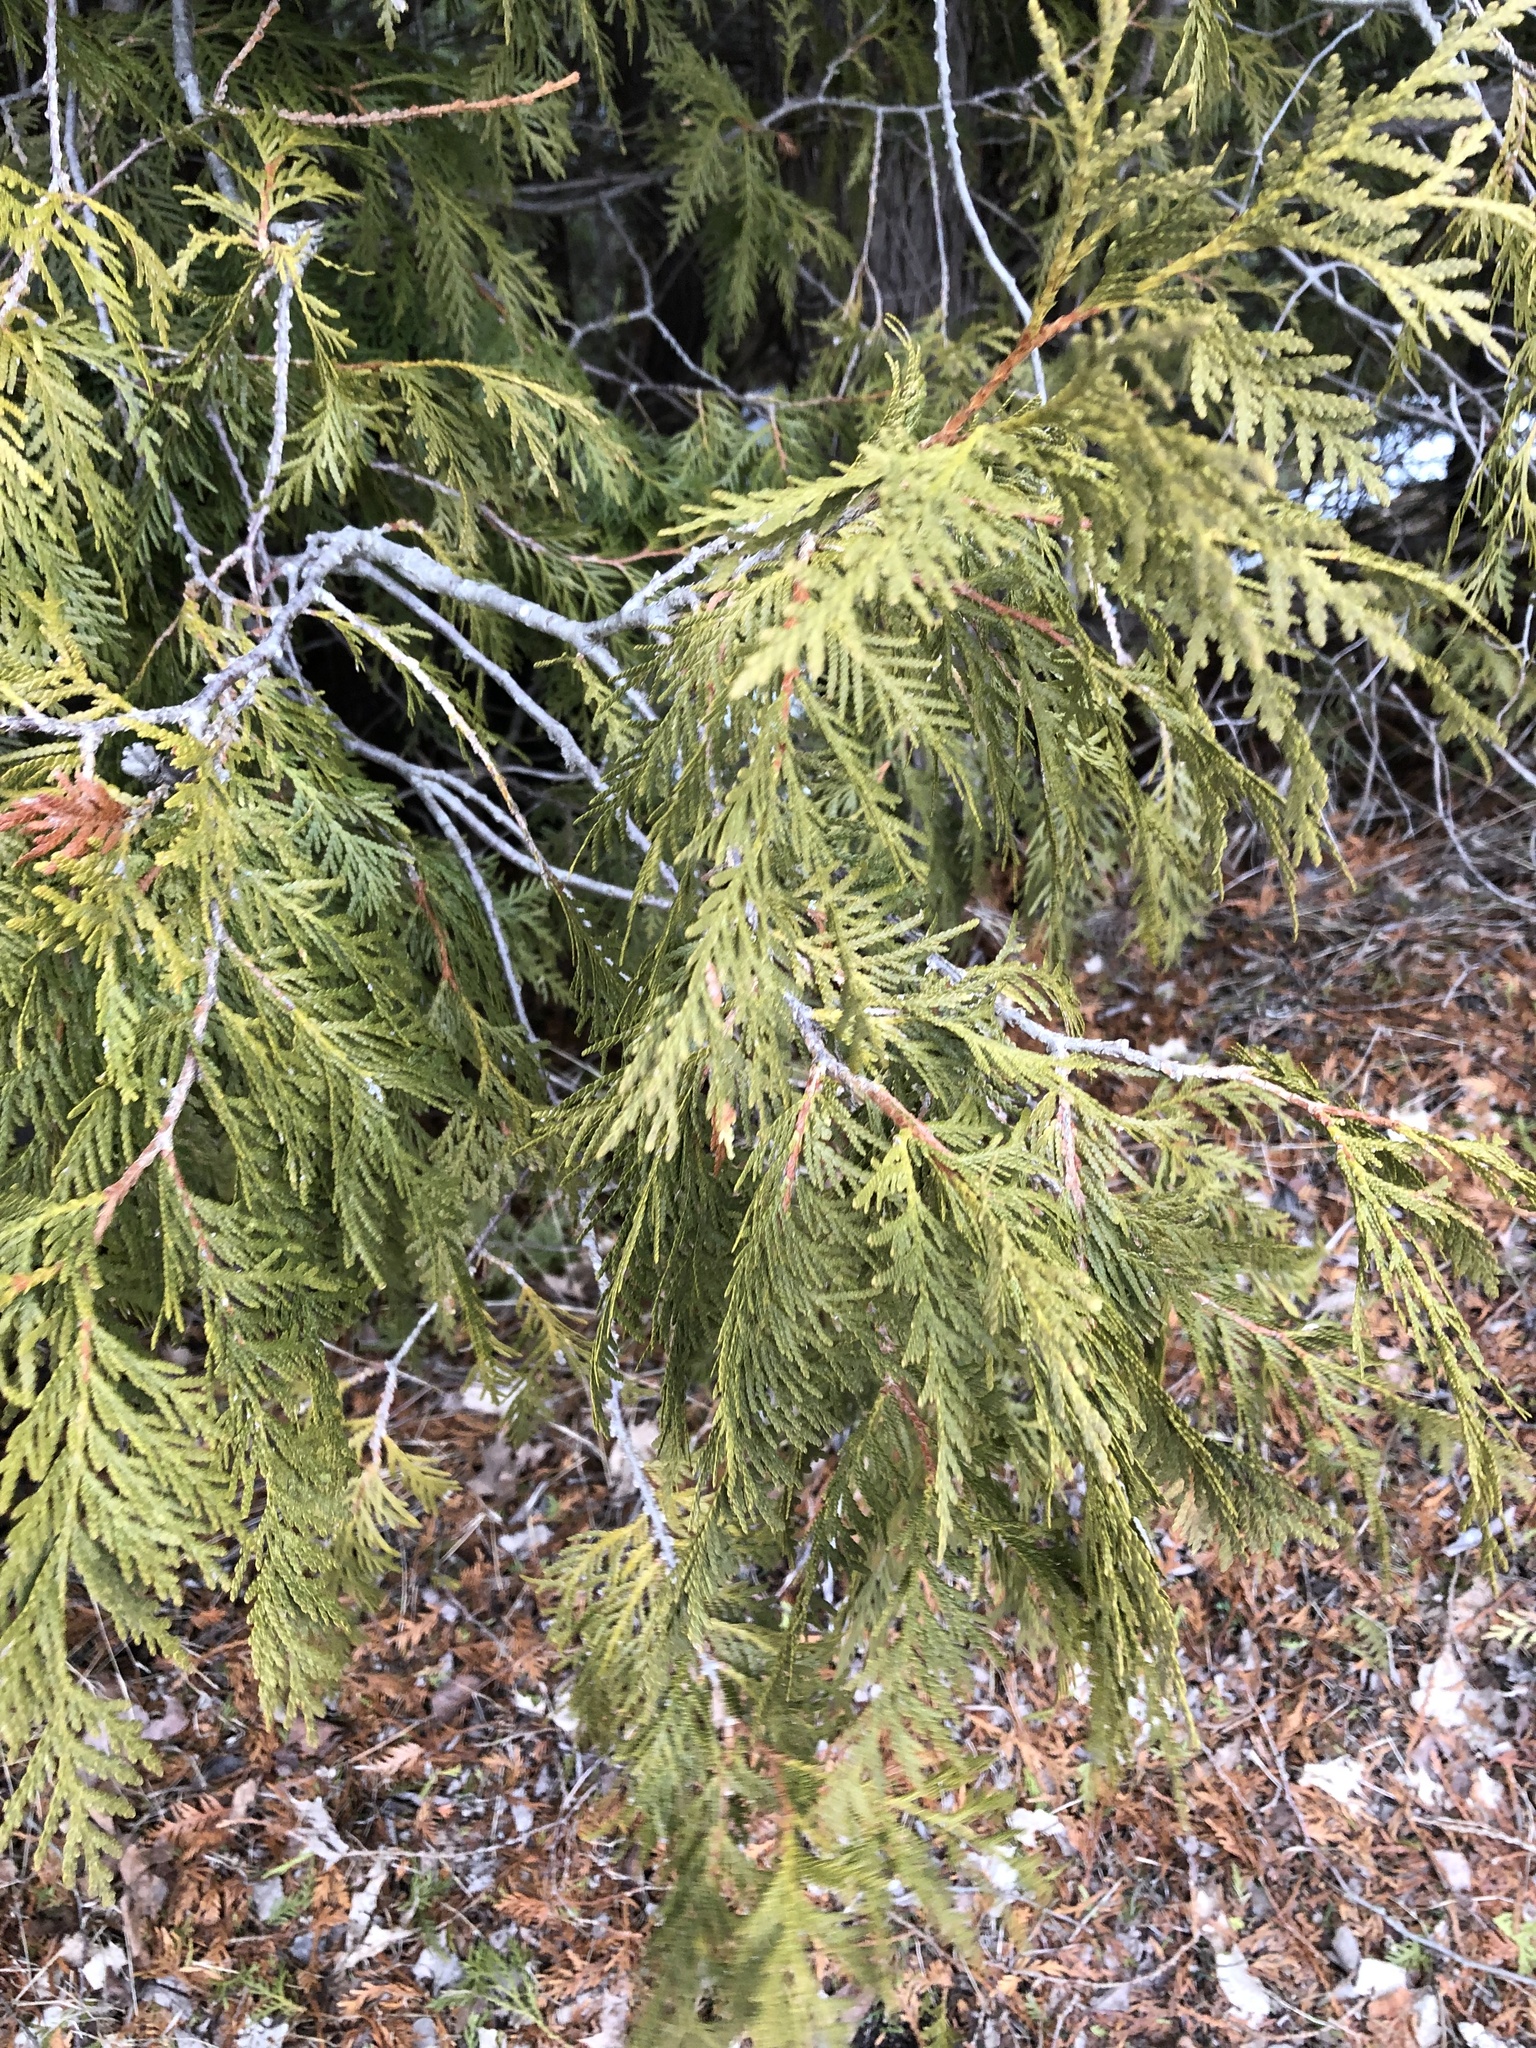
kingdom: Plantae
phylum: Tracheophyta
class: Pinopsida
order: Pinales
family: Cupressaceae
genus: Thuja
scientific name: Thuja occidentalis
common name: Northern white-cedar
